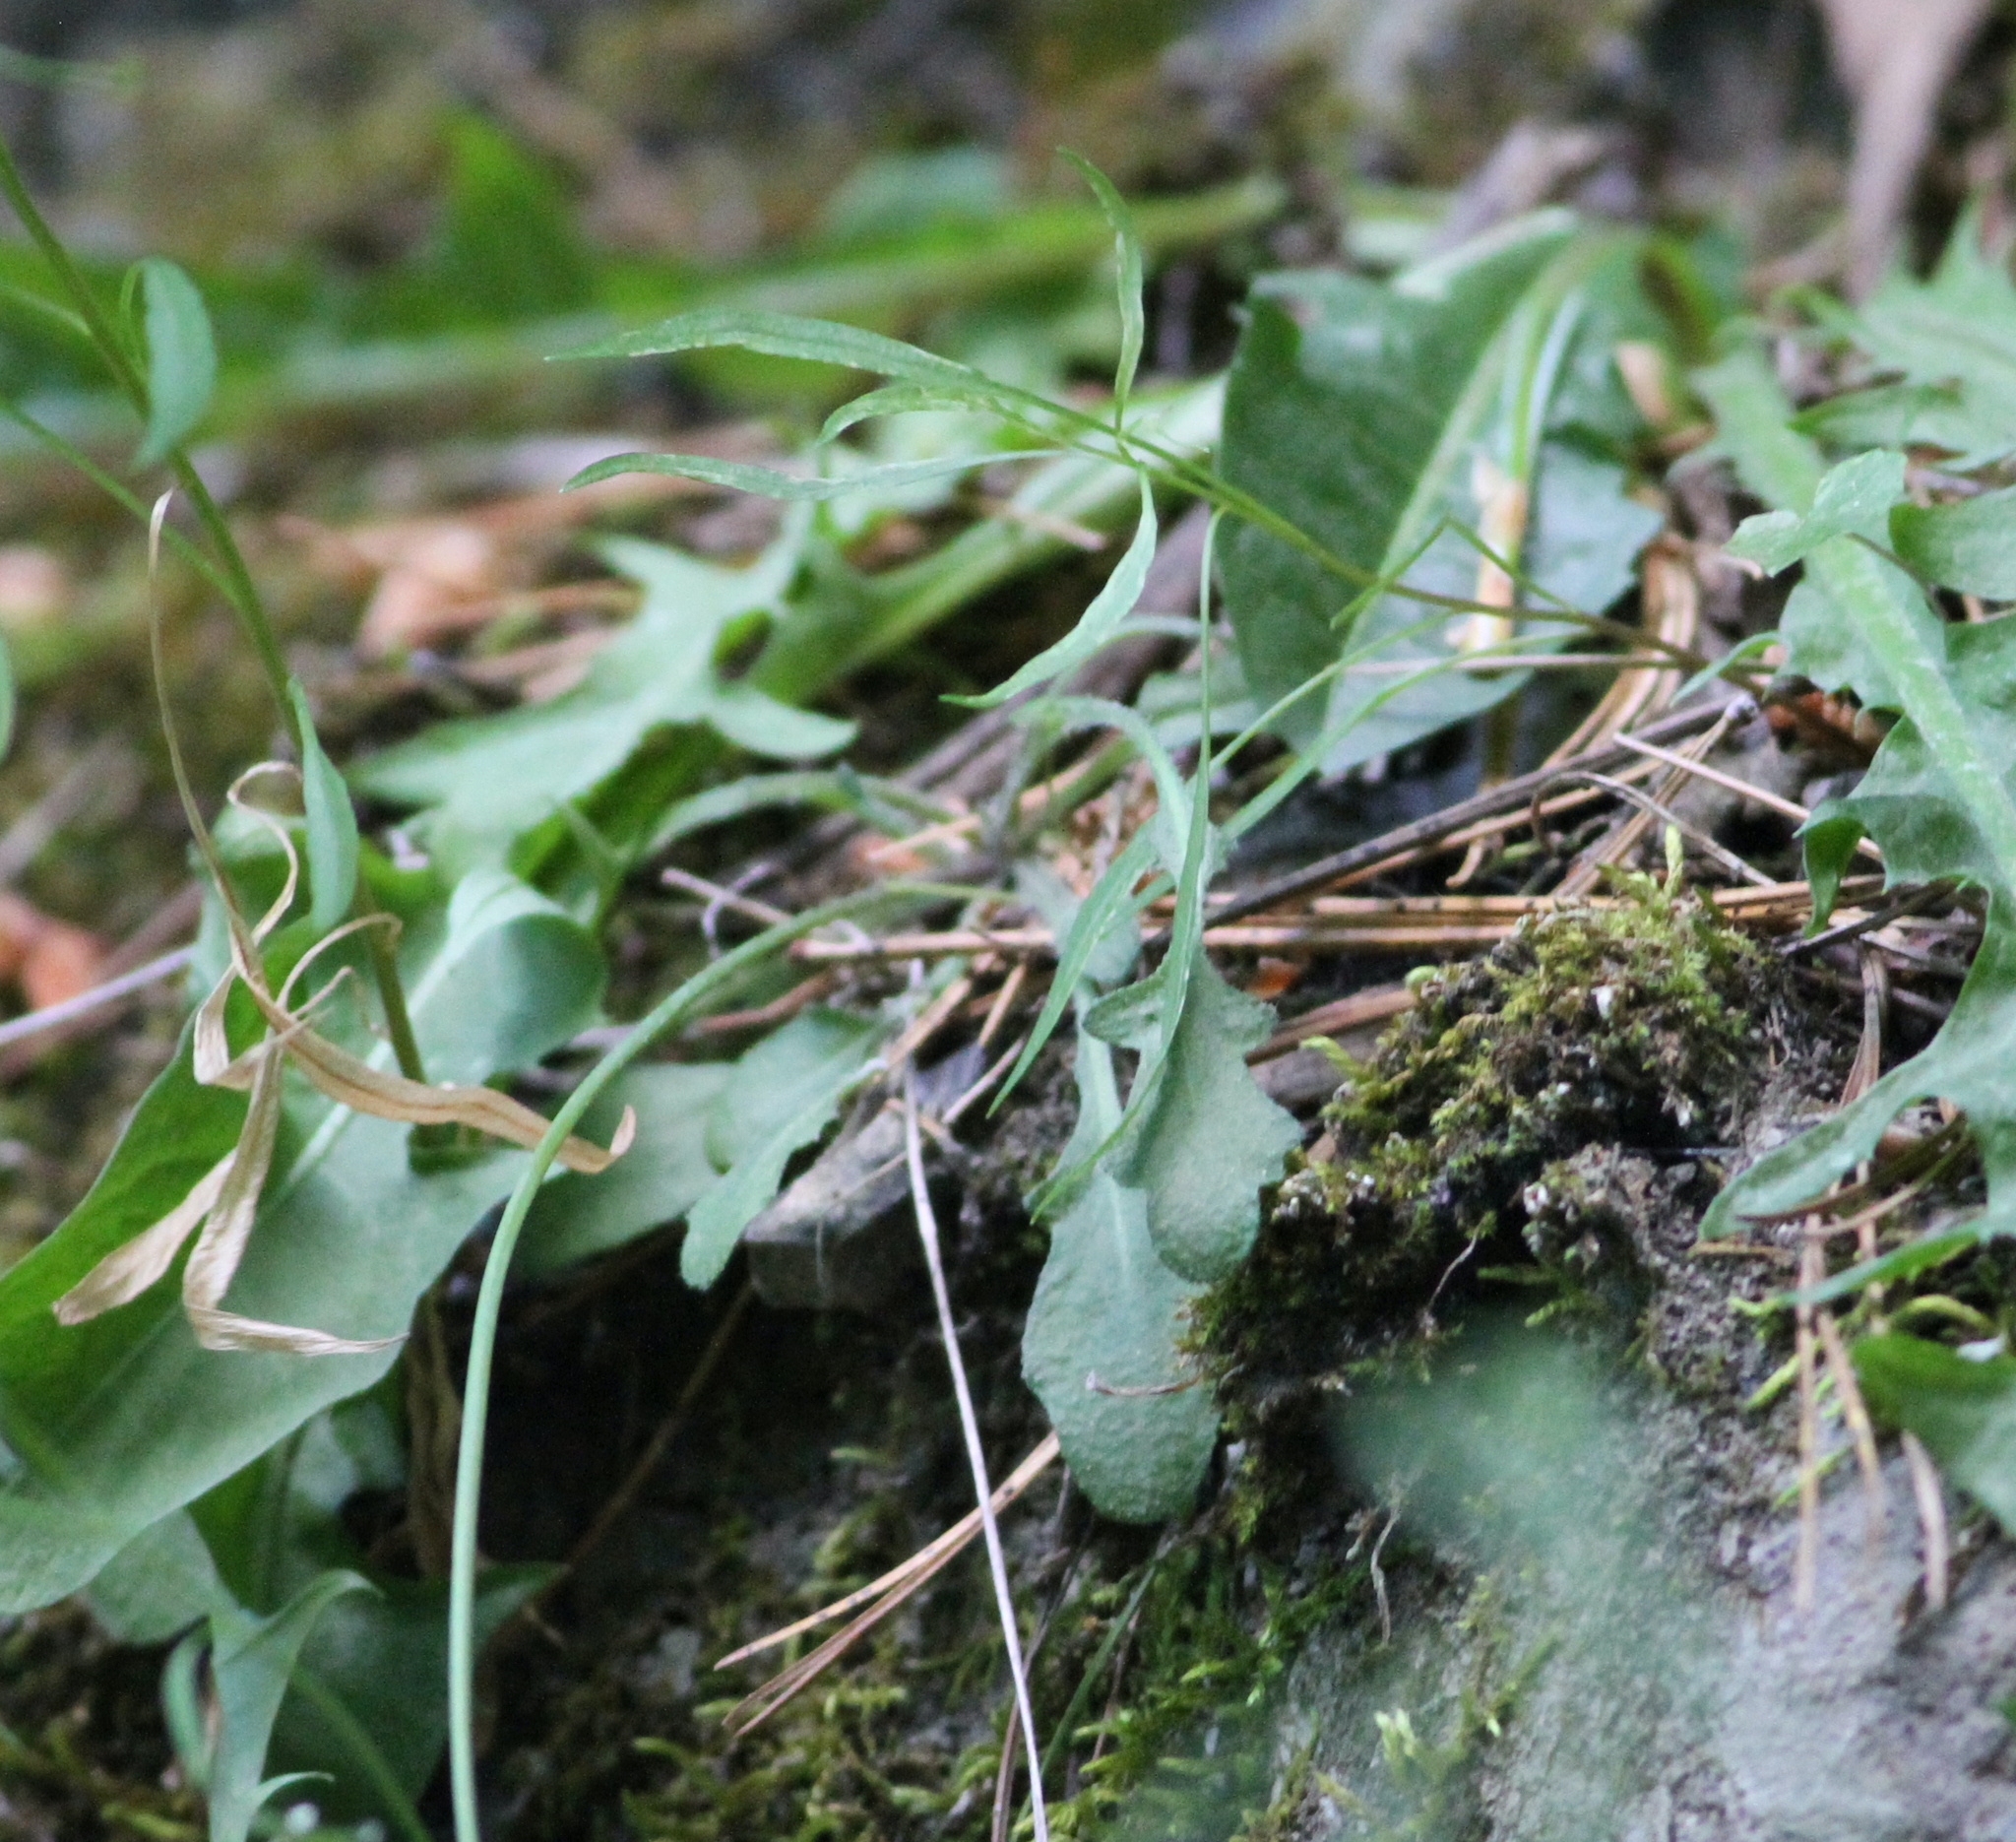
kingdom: Plantae
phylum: Tracheophyta
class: Magnoliopsida
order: Brassicales
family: Brassicaceae
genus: Arabidopsis
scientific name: Arabidopsis lyrata
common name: Lyrate rockcress
